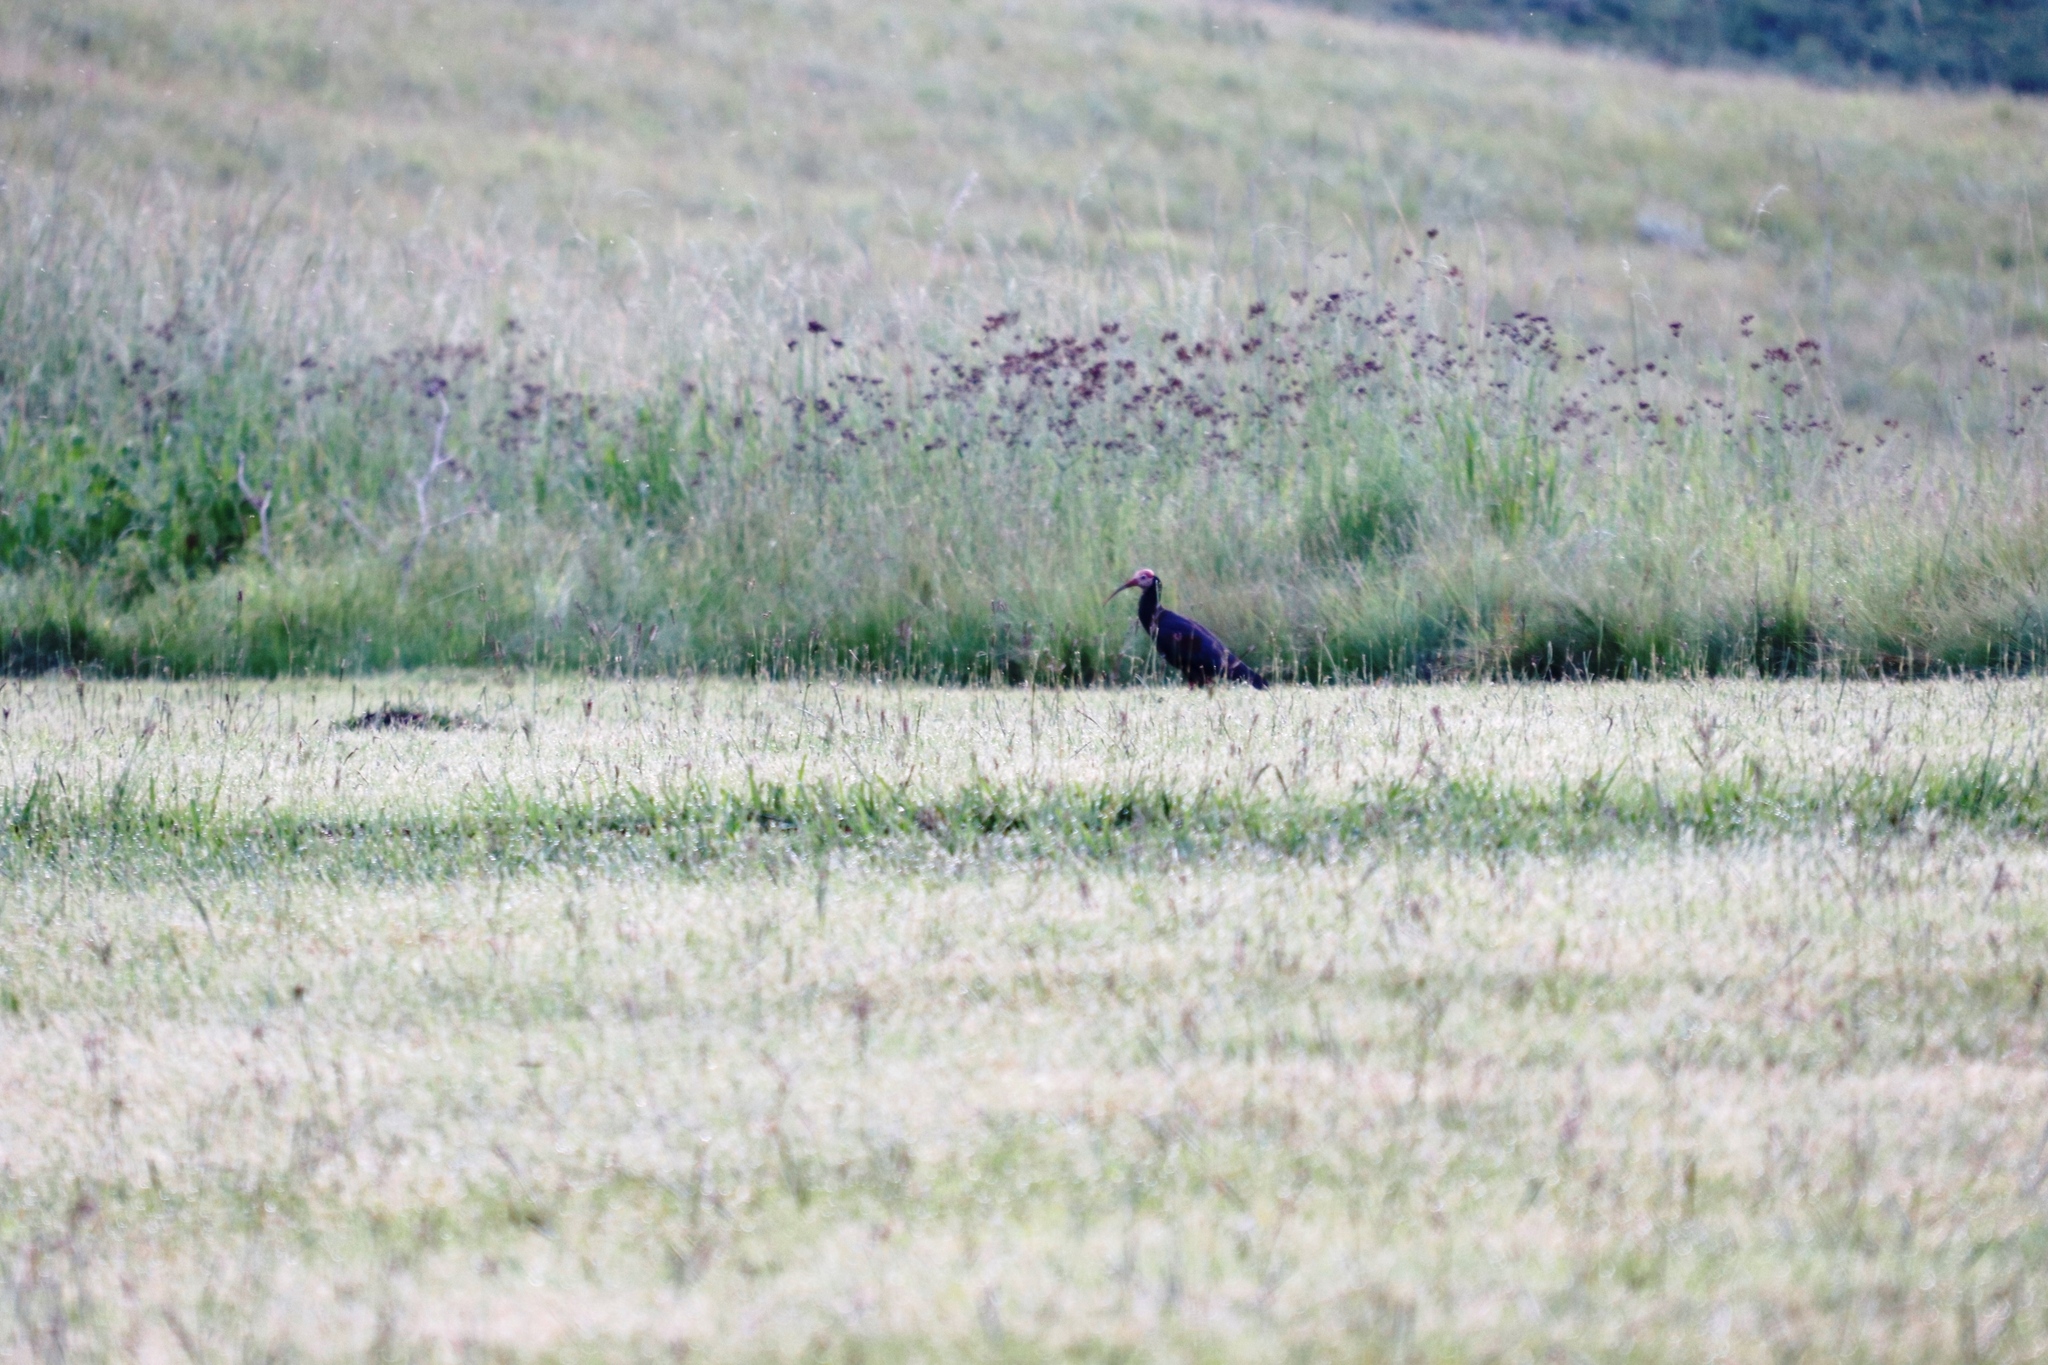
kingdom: Animalia
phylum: Chordata
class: Aves
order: Pelecaniformes
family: Threskiornithidae
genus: Geronticus
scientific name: Geronticus calvus
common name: Southern bald ibis
